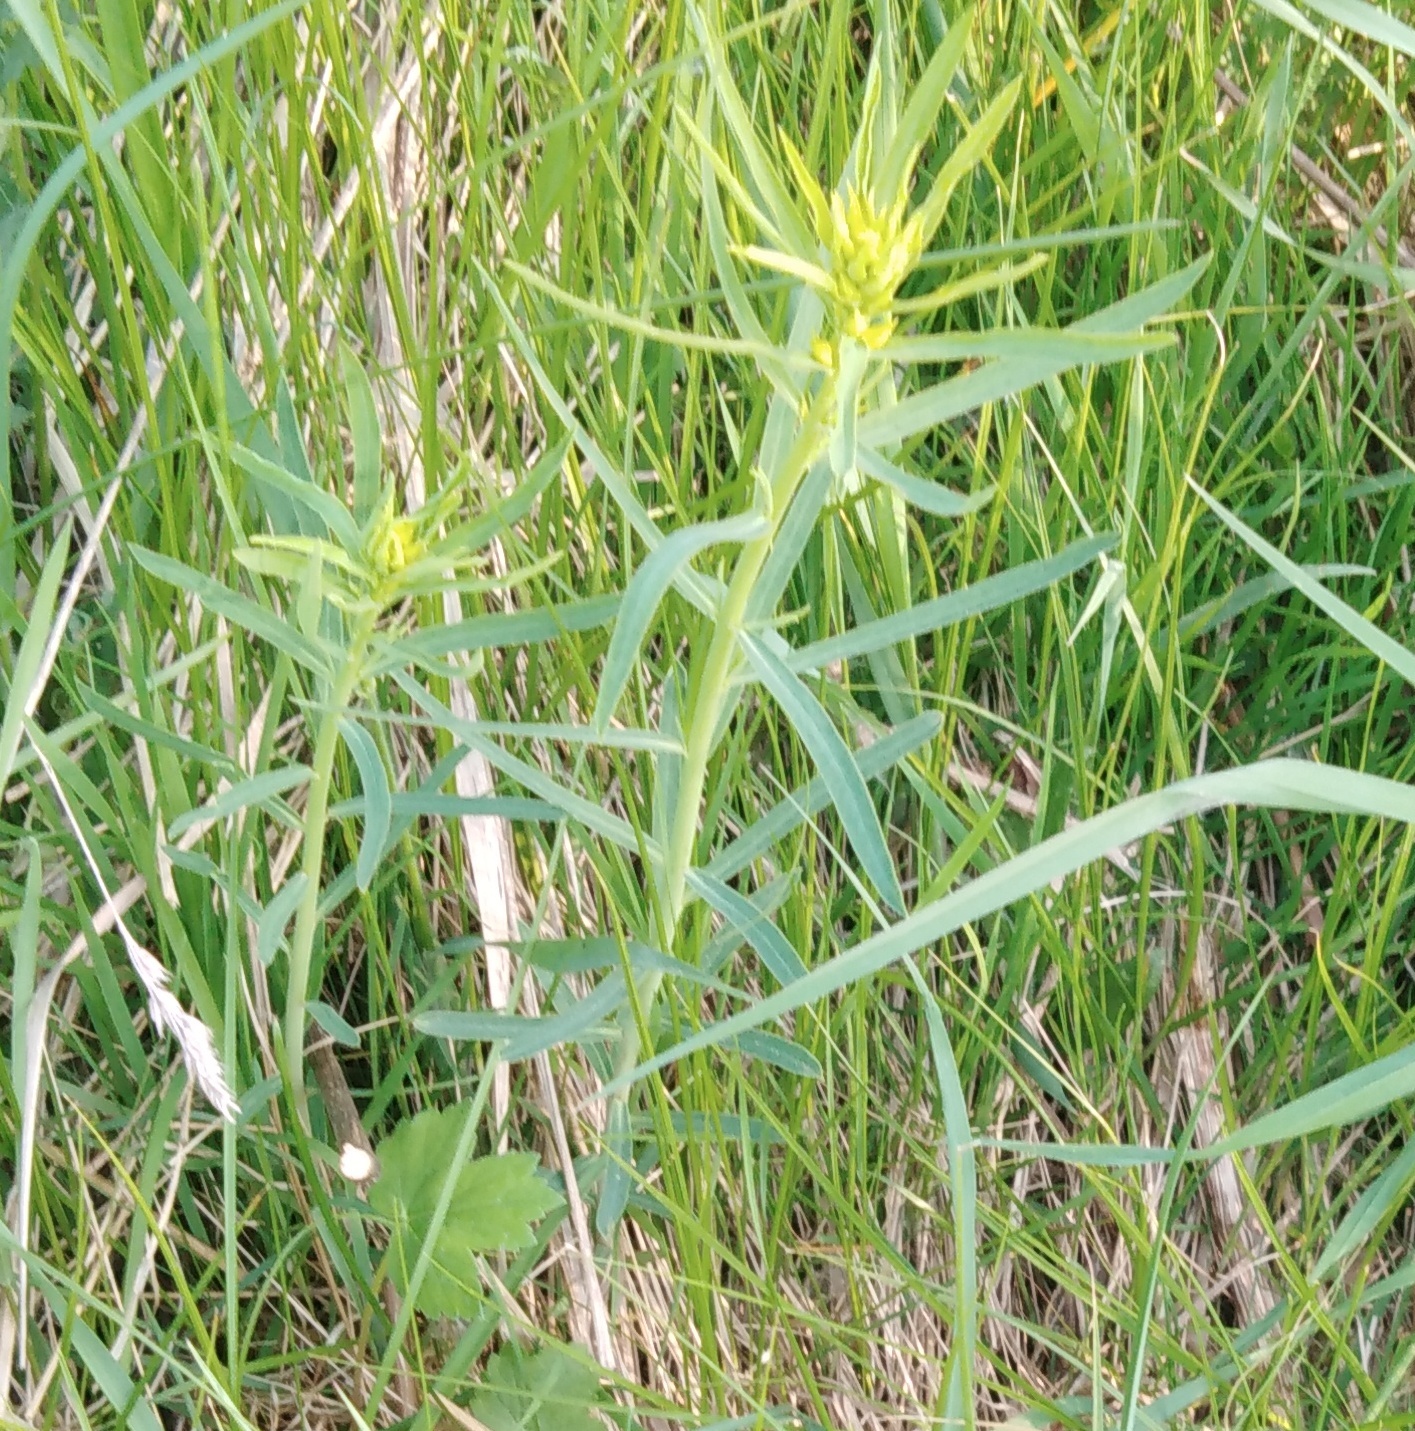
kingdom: Plantae
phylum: Tracheophyta
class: Magnoliopsida
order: Malpighiales
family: Euphorbiaceae
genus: Euphorbia
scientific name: Euphorbia virgata
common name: Leafy spurge
